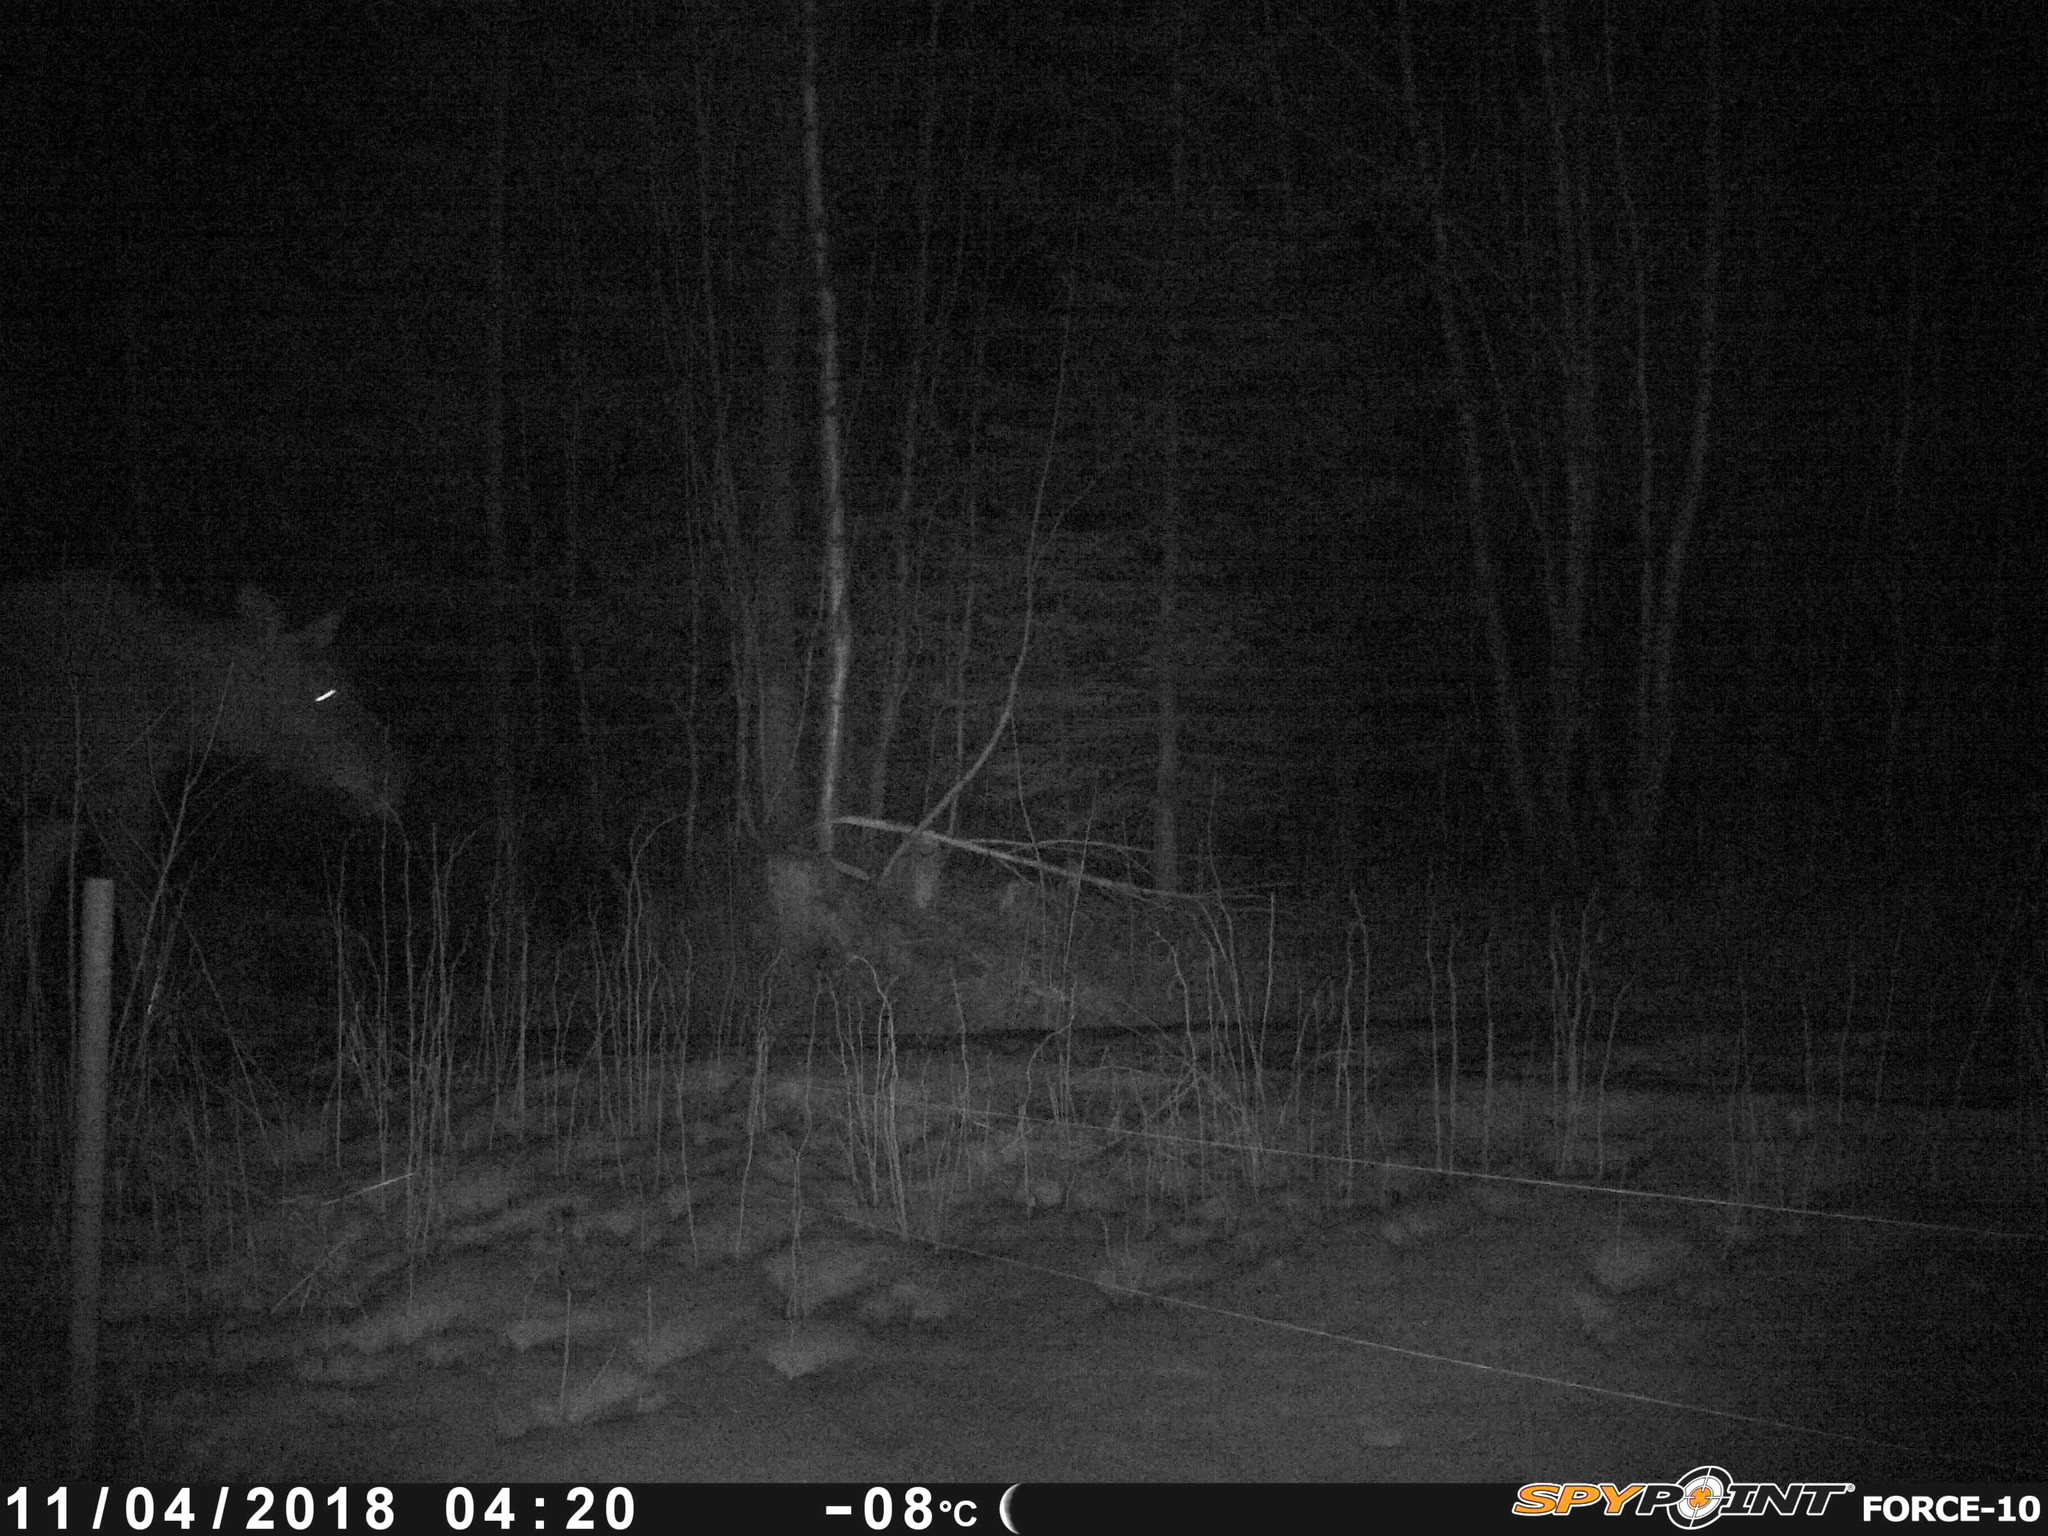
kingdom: Animalia
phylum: Chordata
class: Mammalia
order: Artiodactyla
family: Cervidae
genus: Alces
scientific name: Alces alces
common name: Moose
